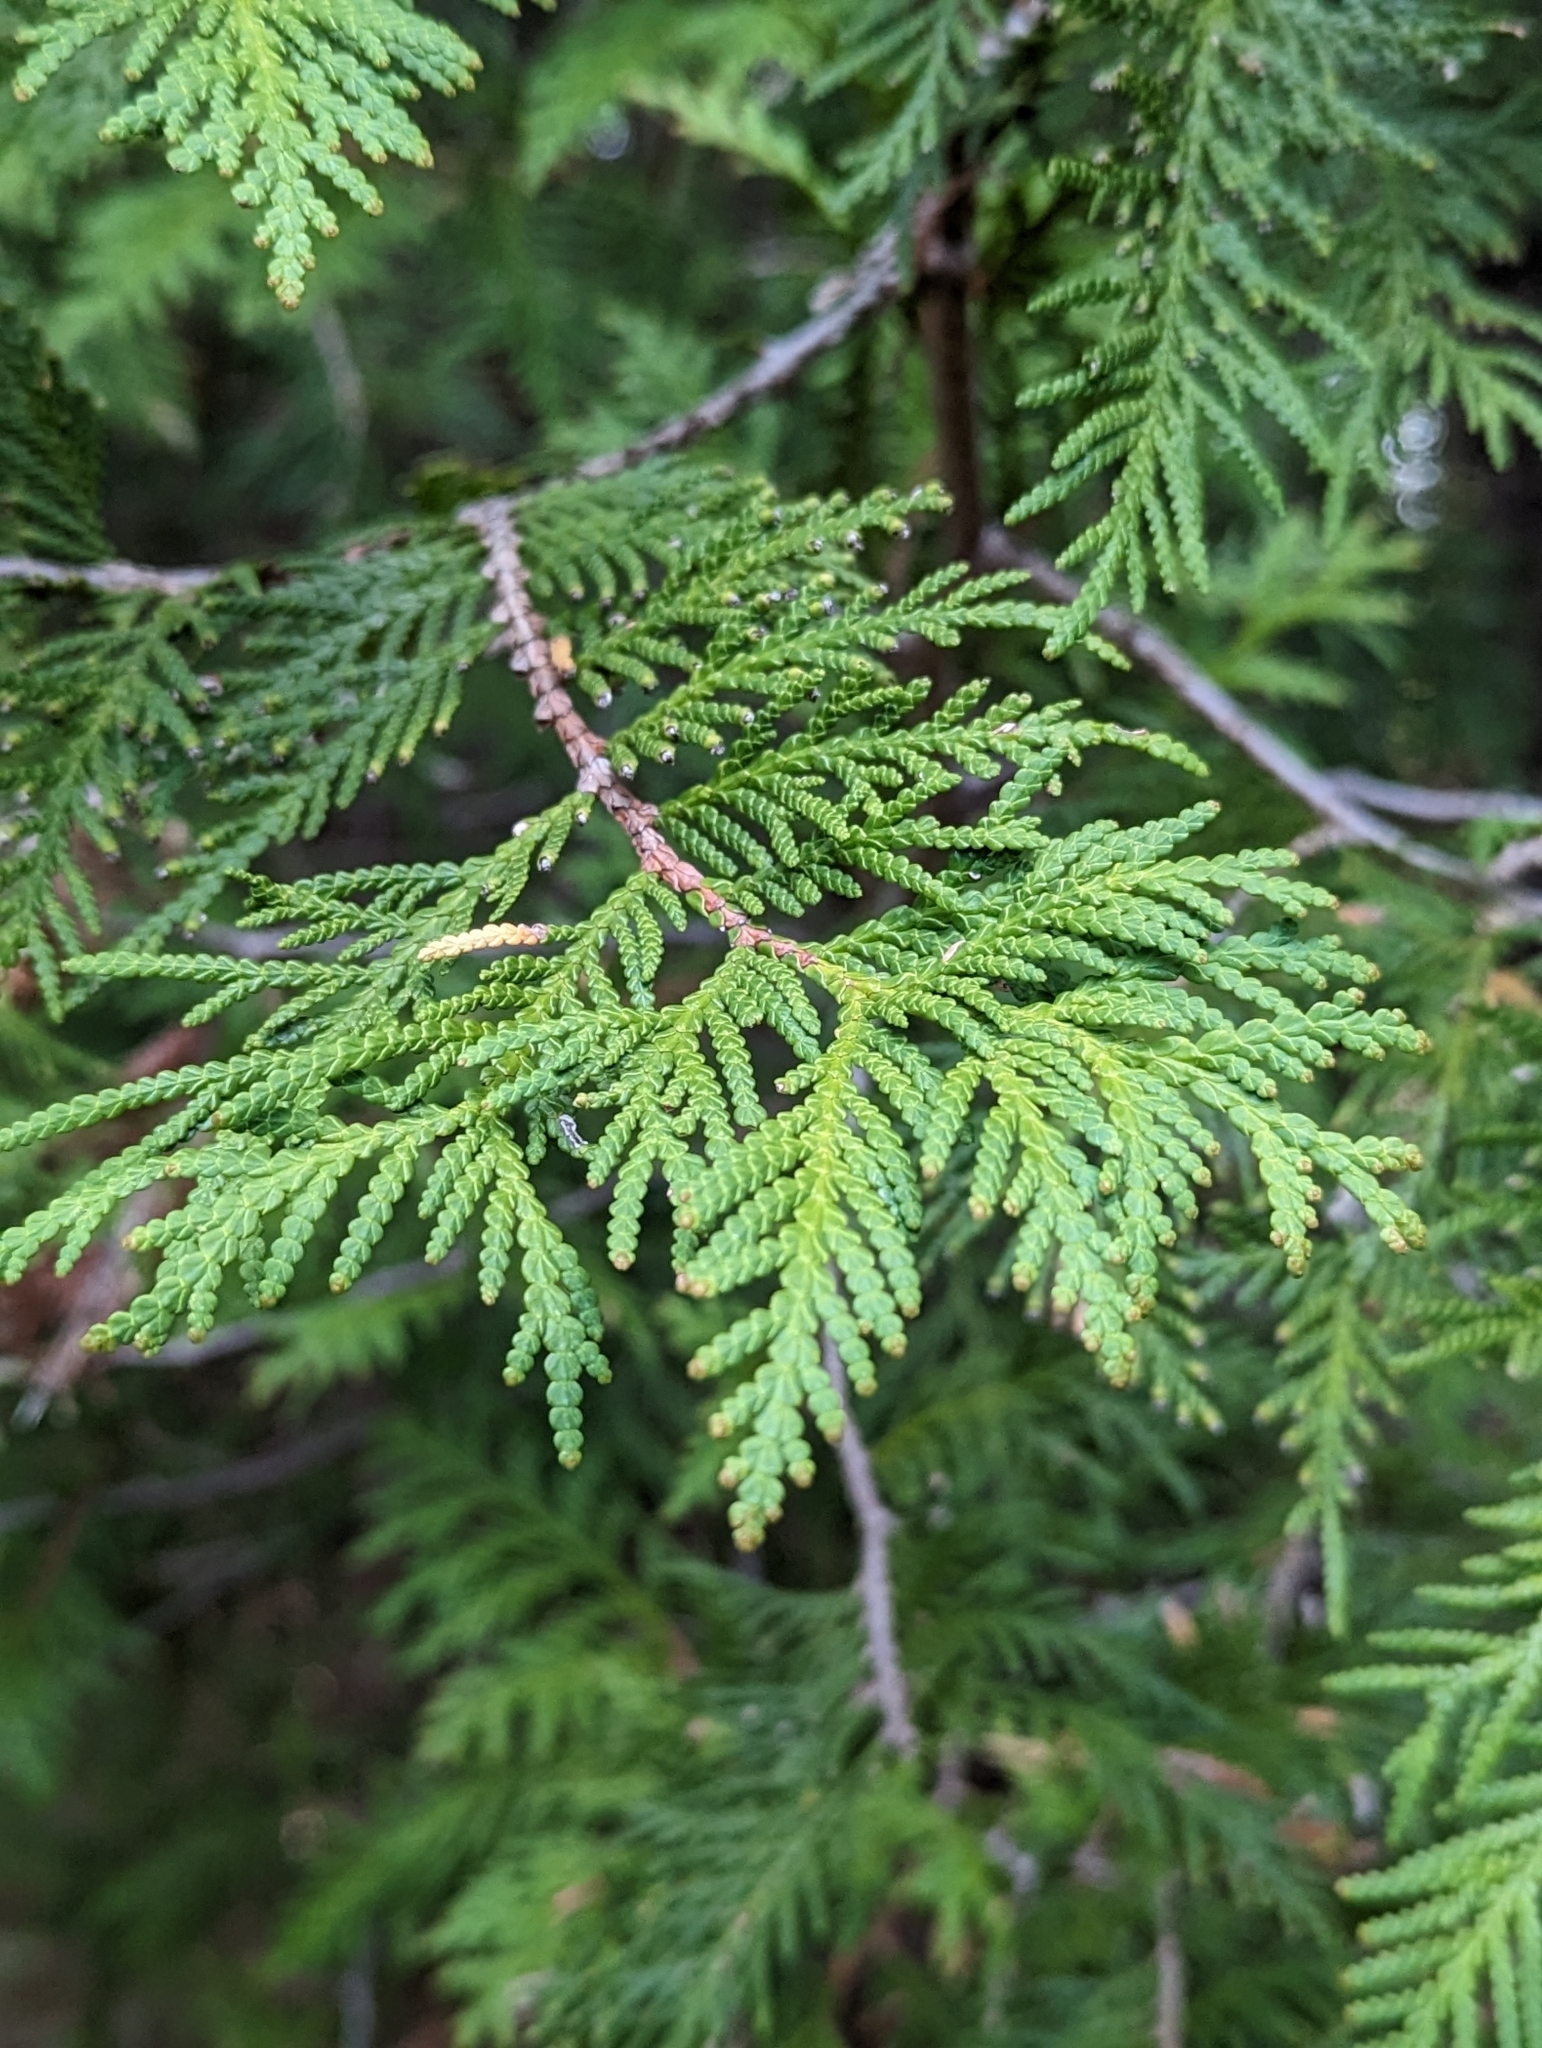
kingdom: Plantae
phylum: Tracheophyta
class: Pinopsida
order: Pinales
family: Cupressaceae
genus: Thuja
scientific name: Thuja occidentalis
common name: Northern white-cedar
